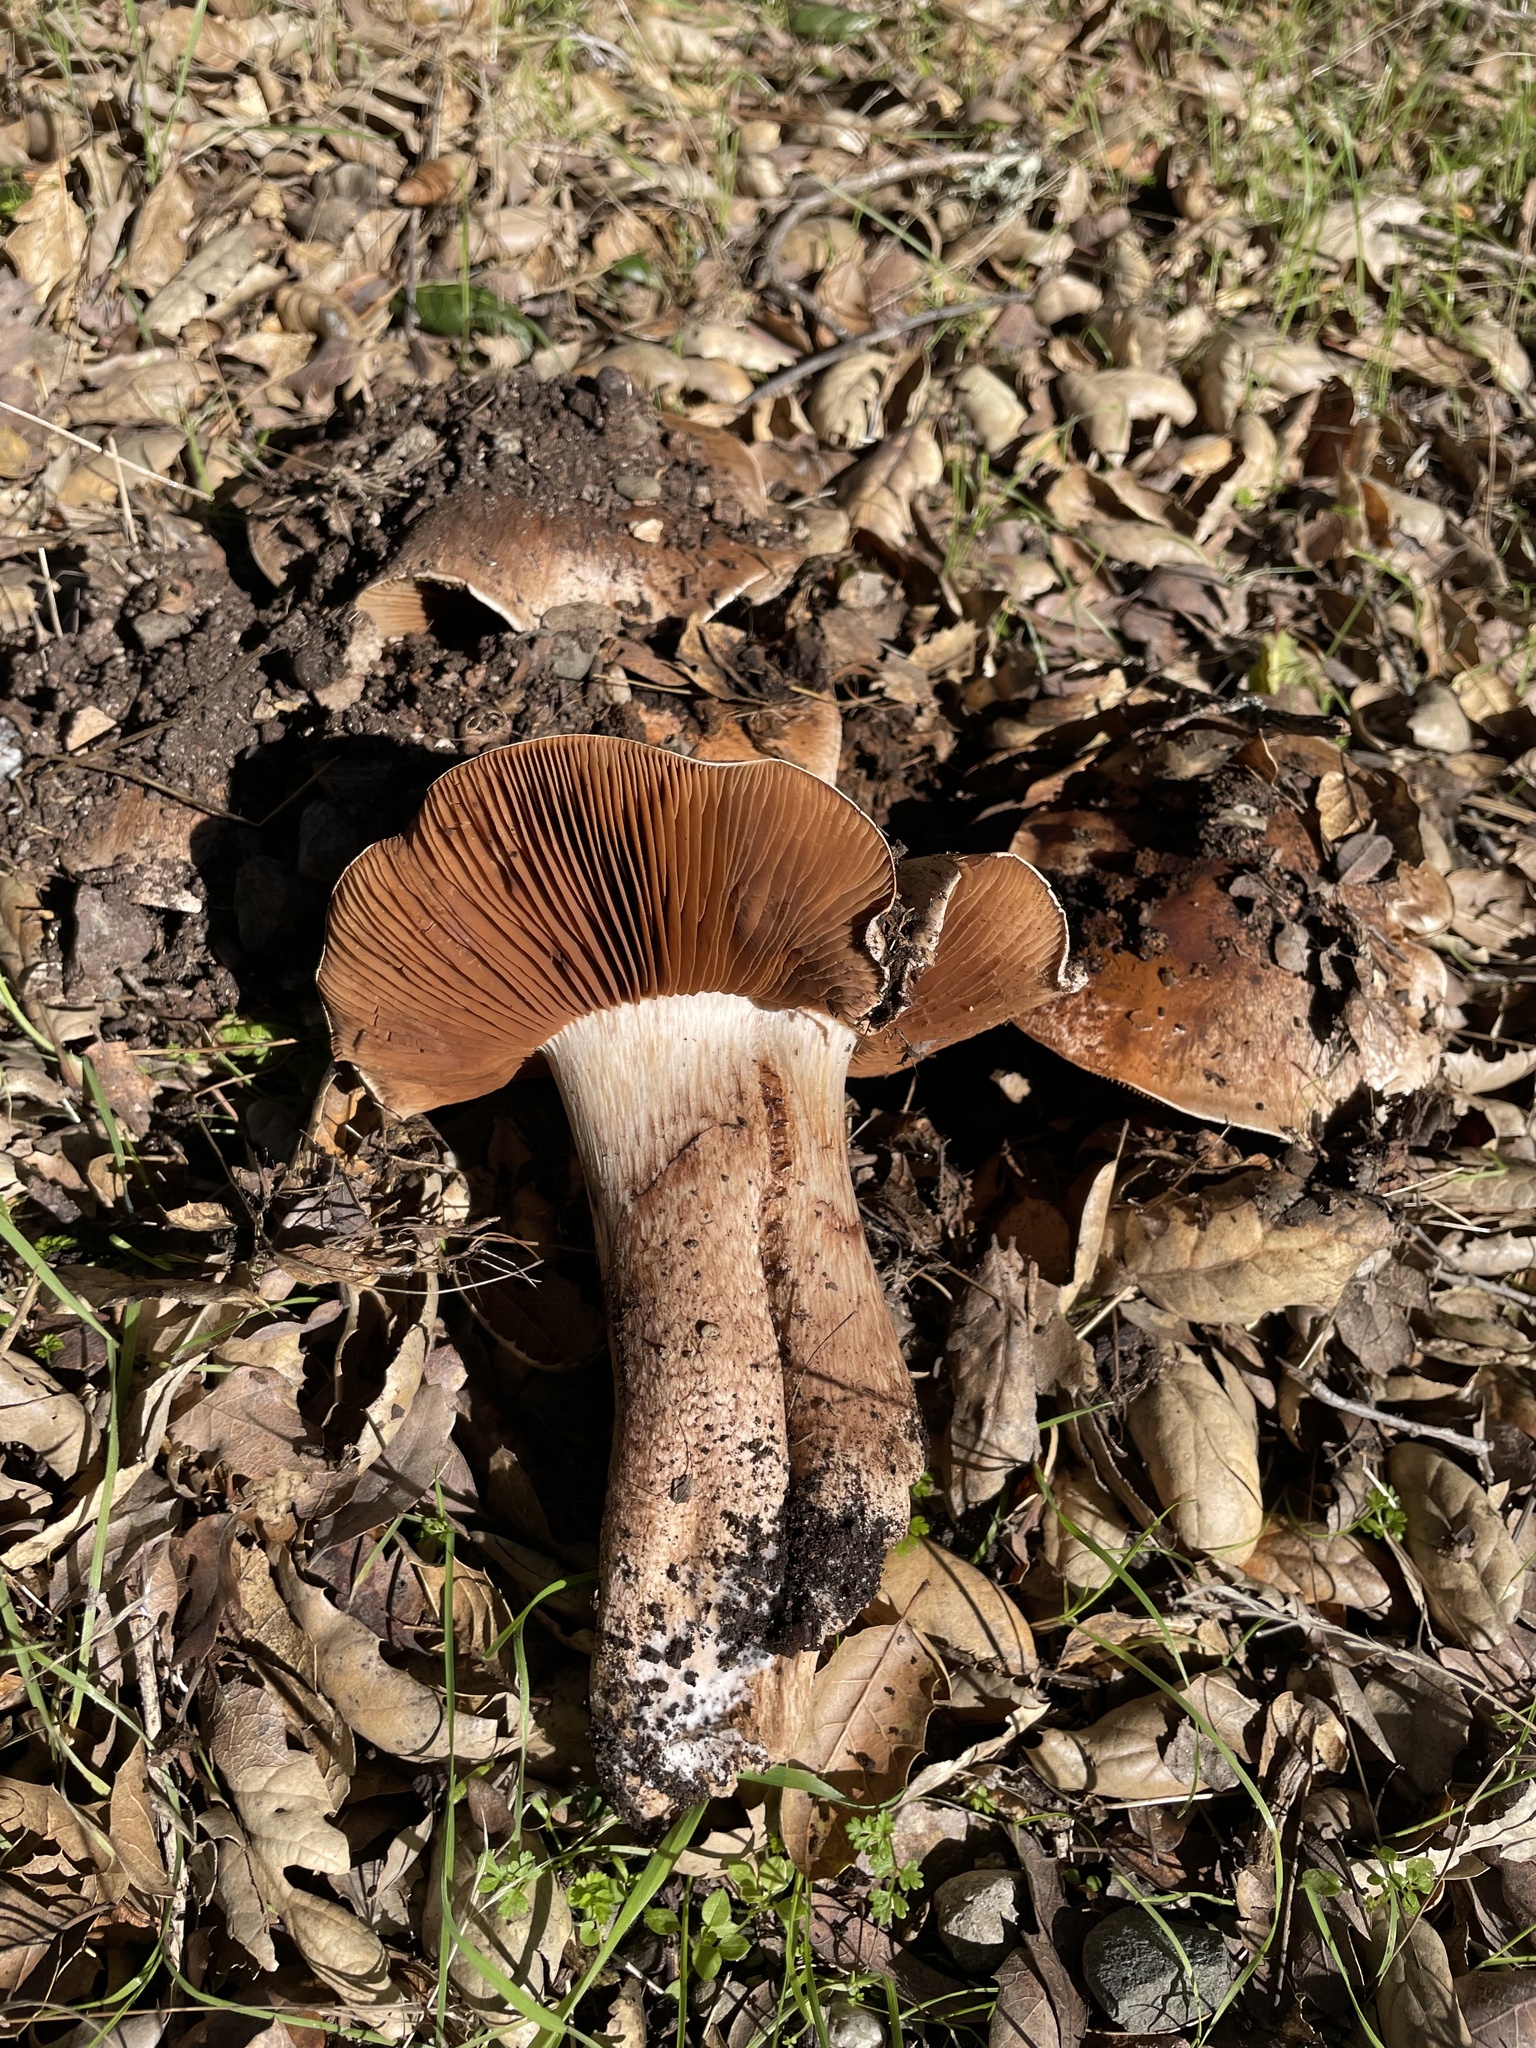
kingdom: Fungi
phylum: Basidiomycota
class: Agaricomycetes
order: Agaricales
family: Tricholomataceae
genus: Melanoleuca
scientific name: Melanoleuca dryophila
